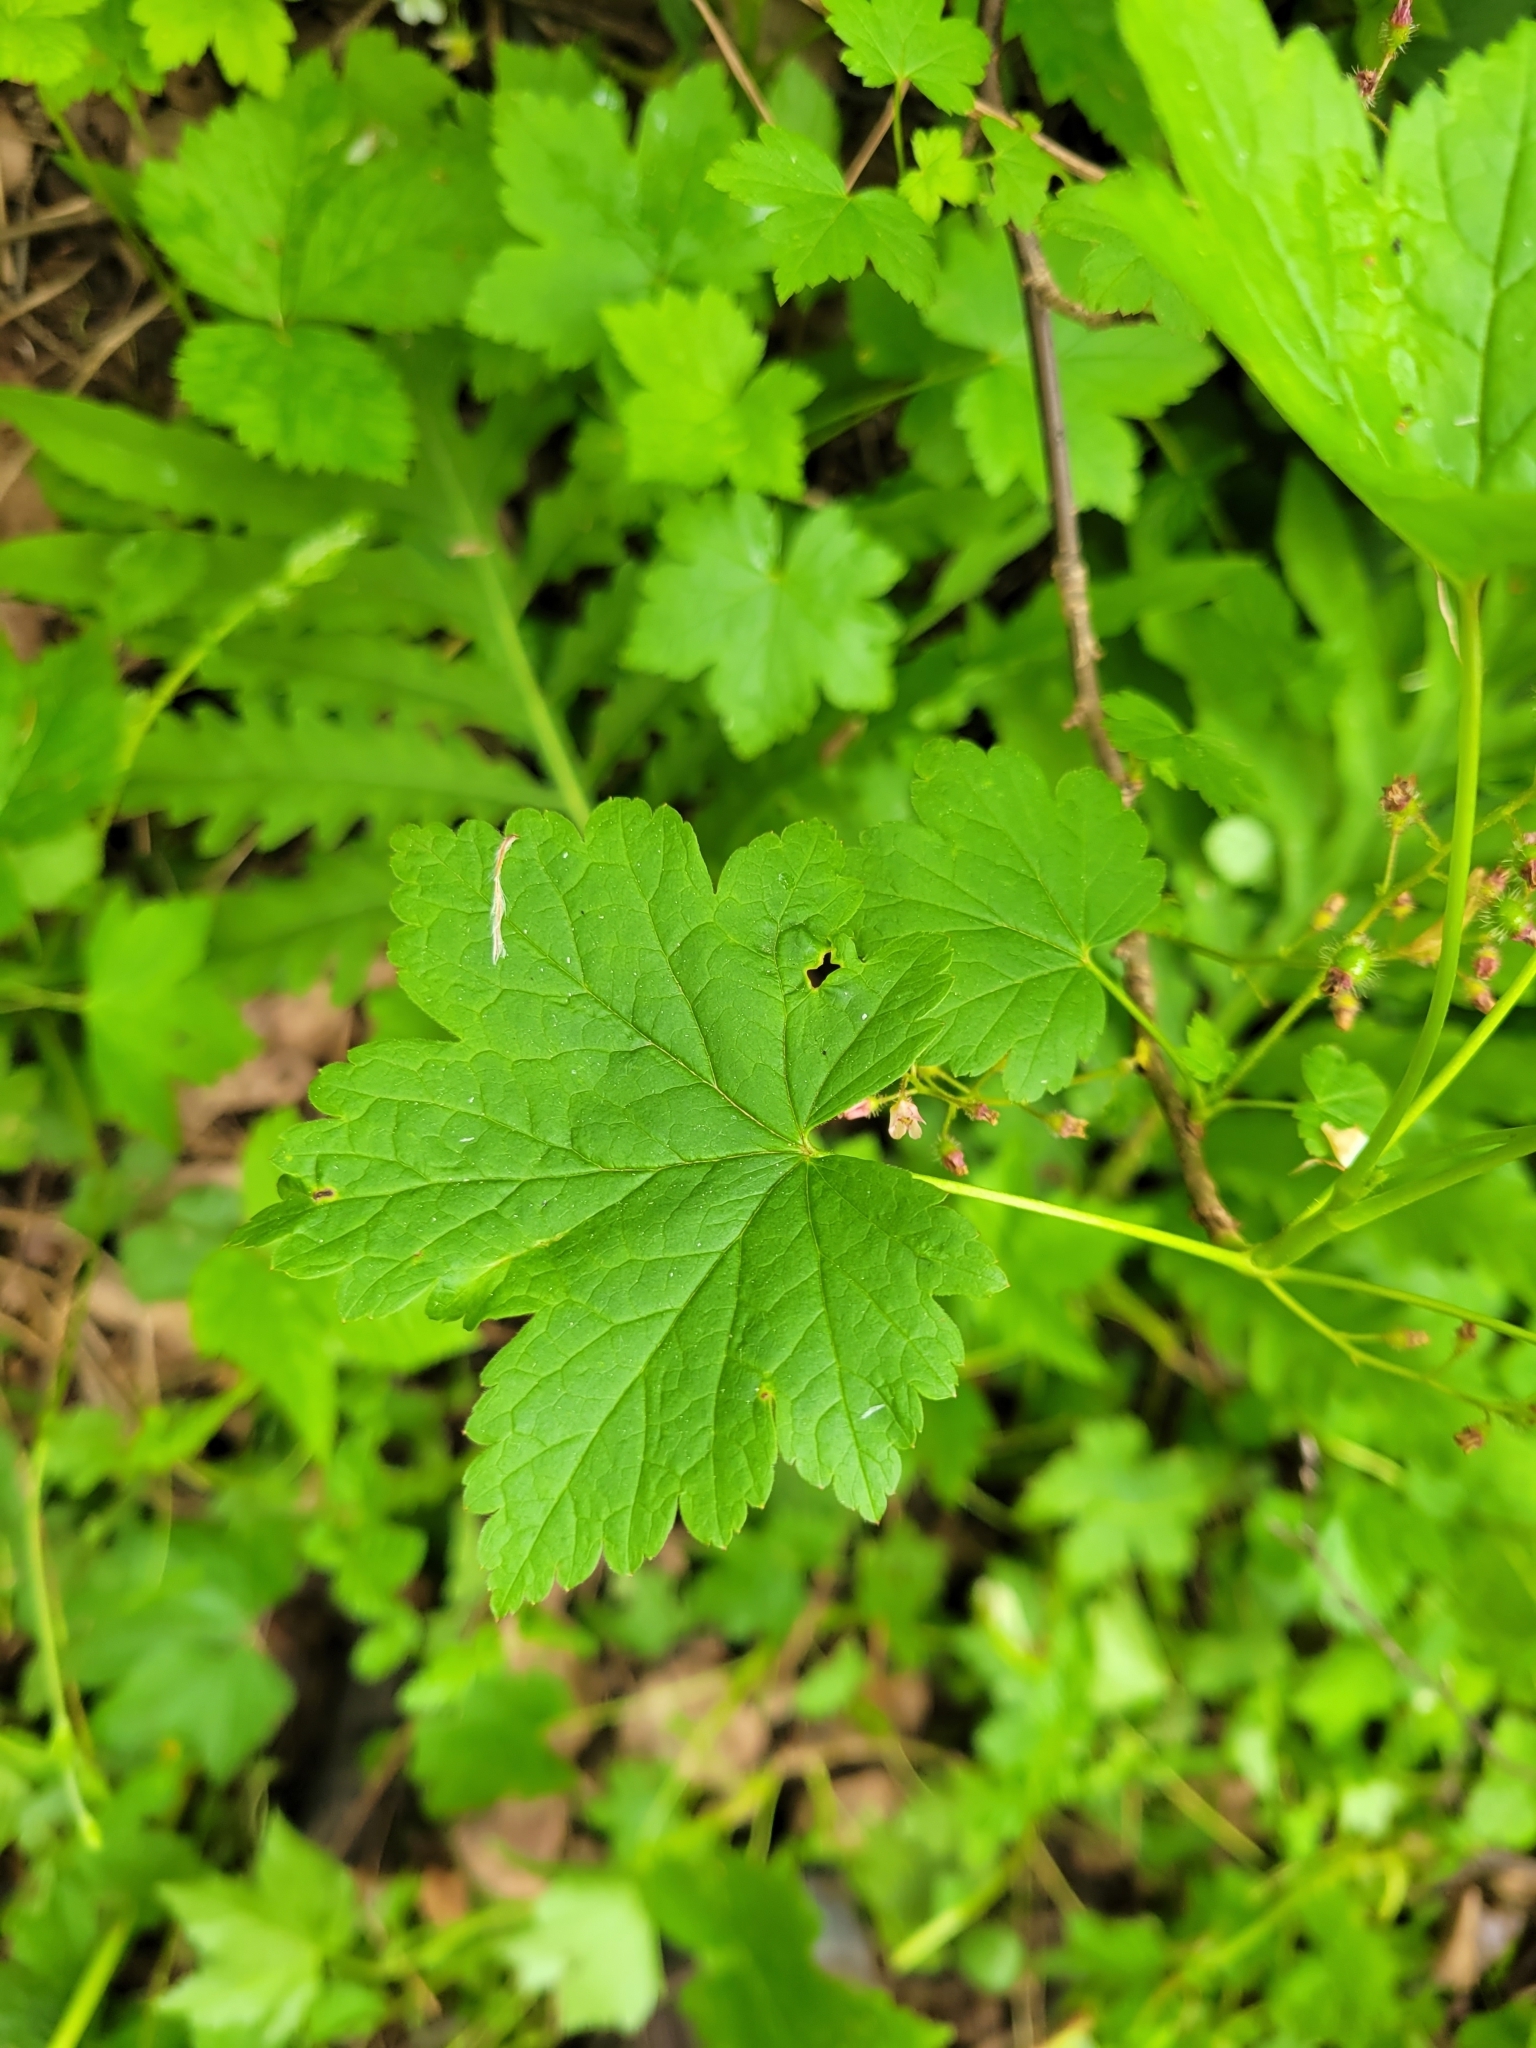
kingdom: Plantae
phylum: Tracheophyta
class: Magnoliopsida
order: Saxifragales
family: Grossulariaceae
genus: Ribes
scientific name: Ribes glandulosum
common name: Skunk currant
